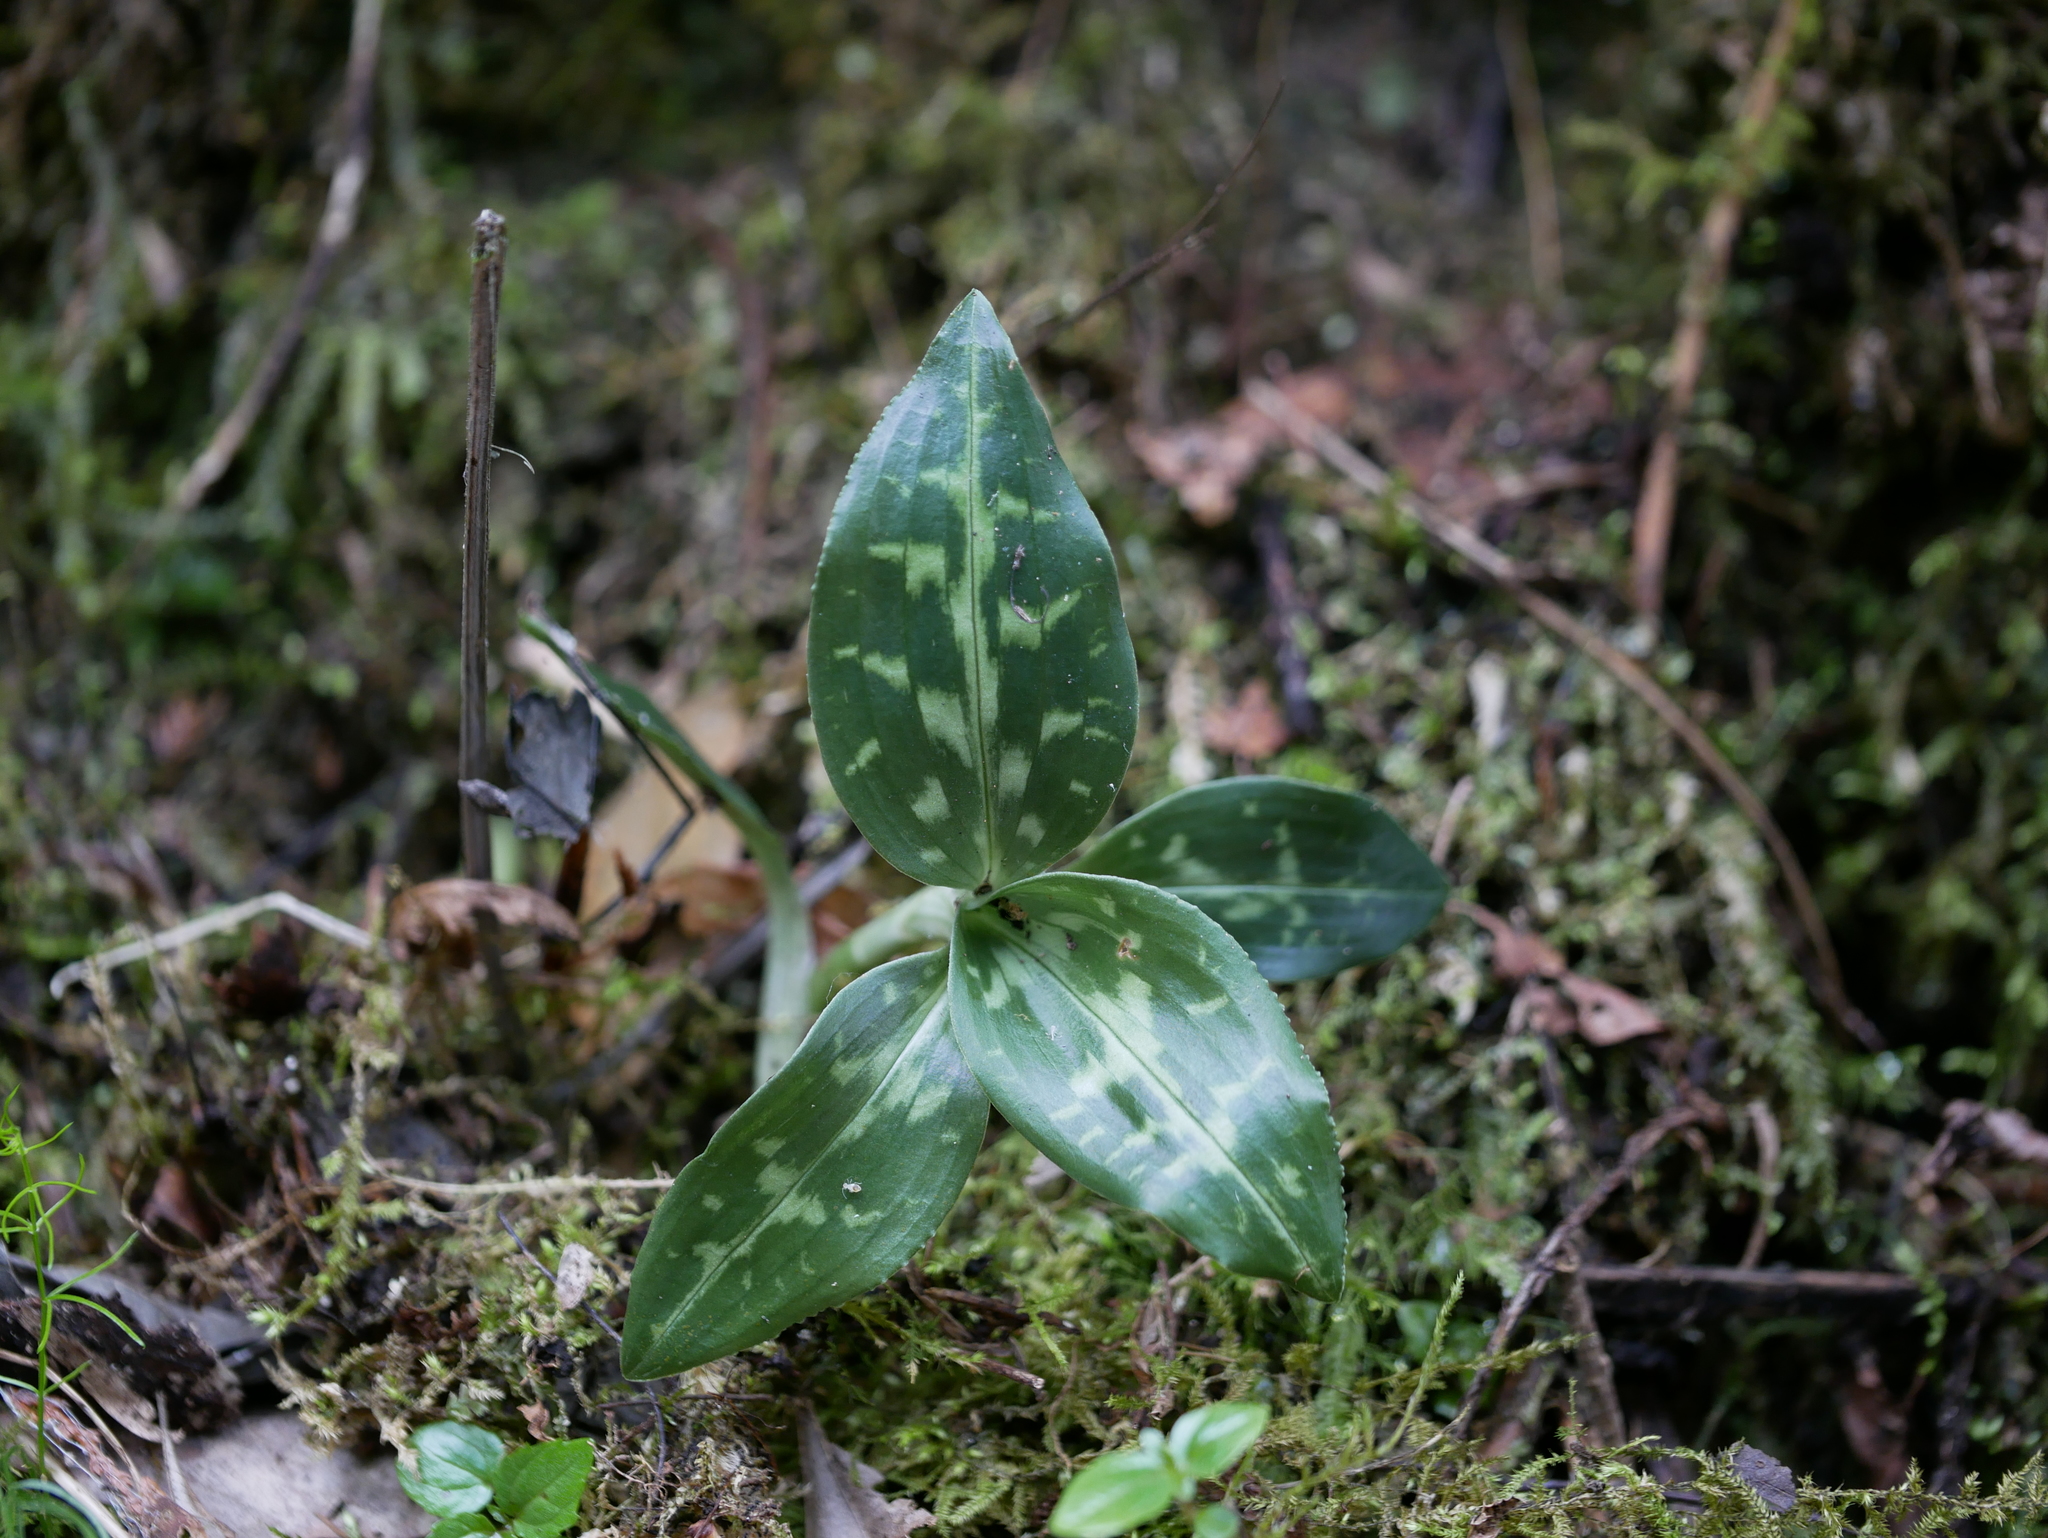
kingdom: Plantae
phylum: Tracheophyta
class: Liliopsida
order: Asparagales
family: Orchidaceae
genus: Goodyera
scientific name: Goodyera daibuzanensis
